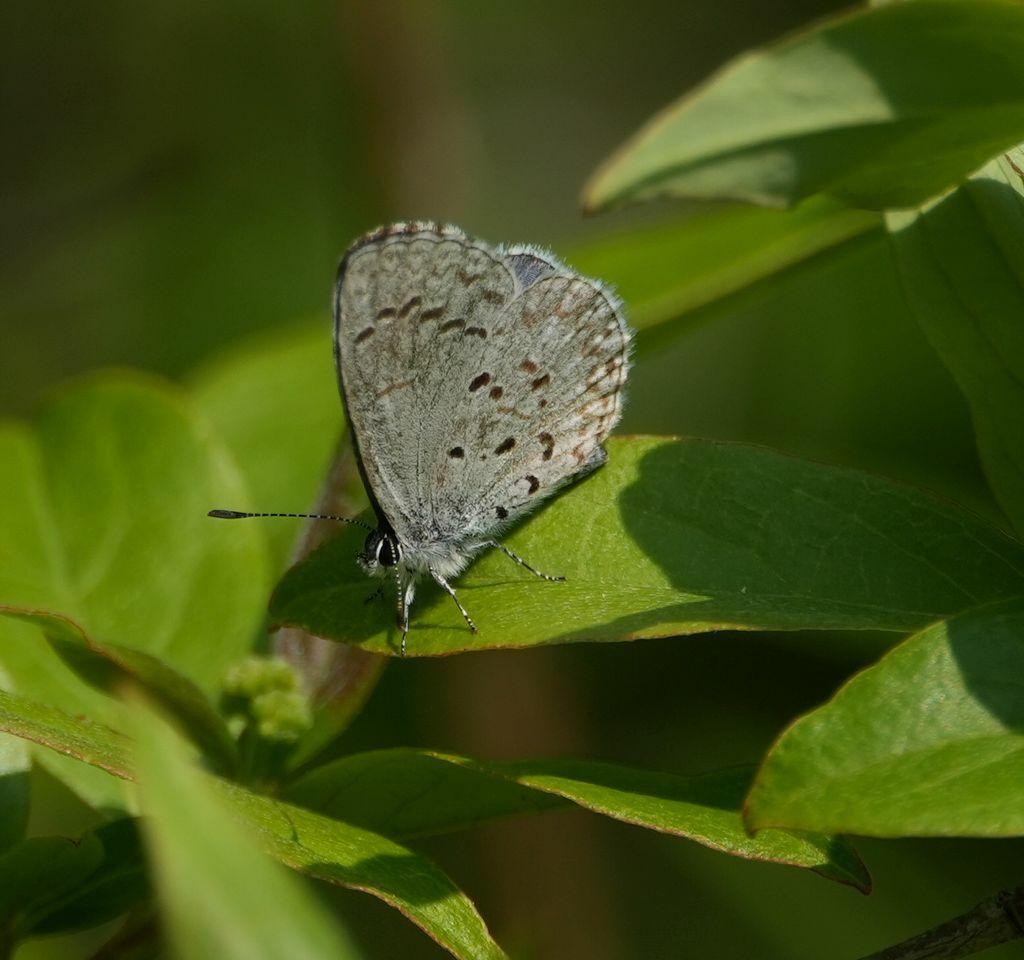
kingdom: Animalia
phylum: Arthropoda
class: Insecta
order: Lepidoptera
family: Lycaenidae
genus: Celastrina
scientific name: Celastrina lucia
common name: Lucia azure
